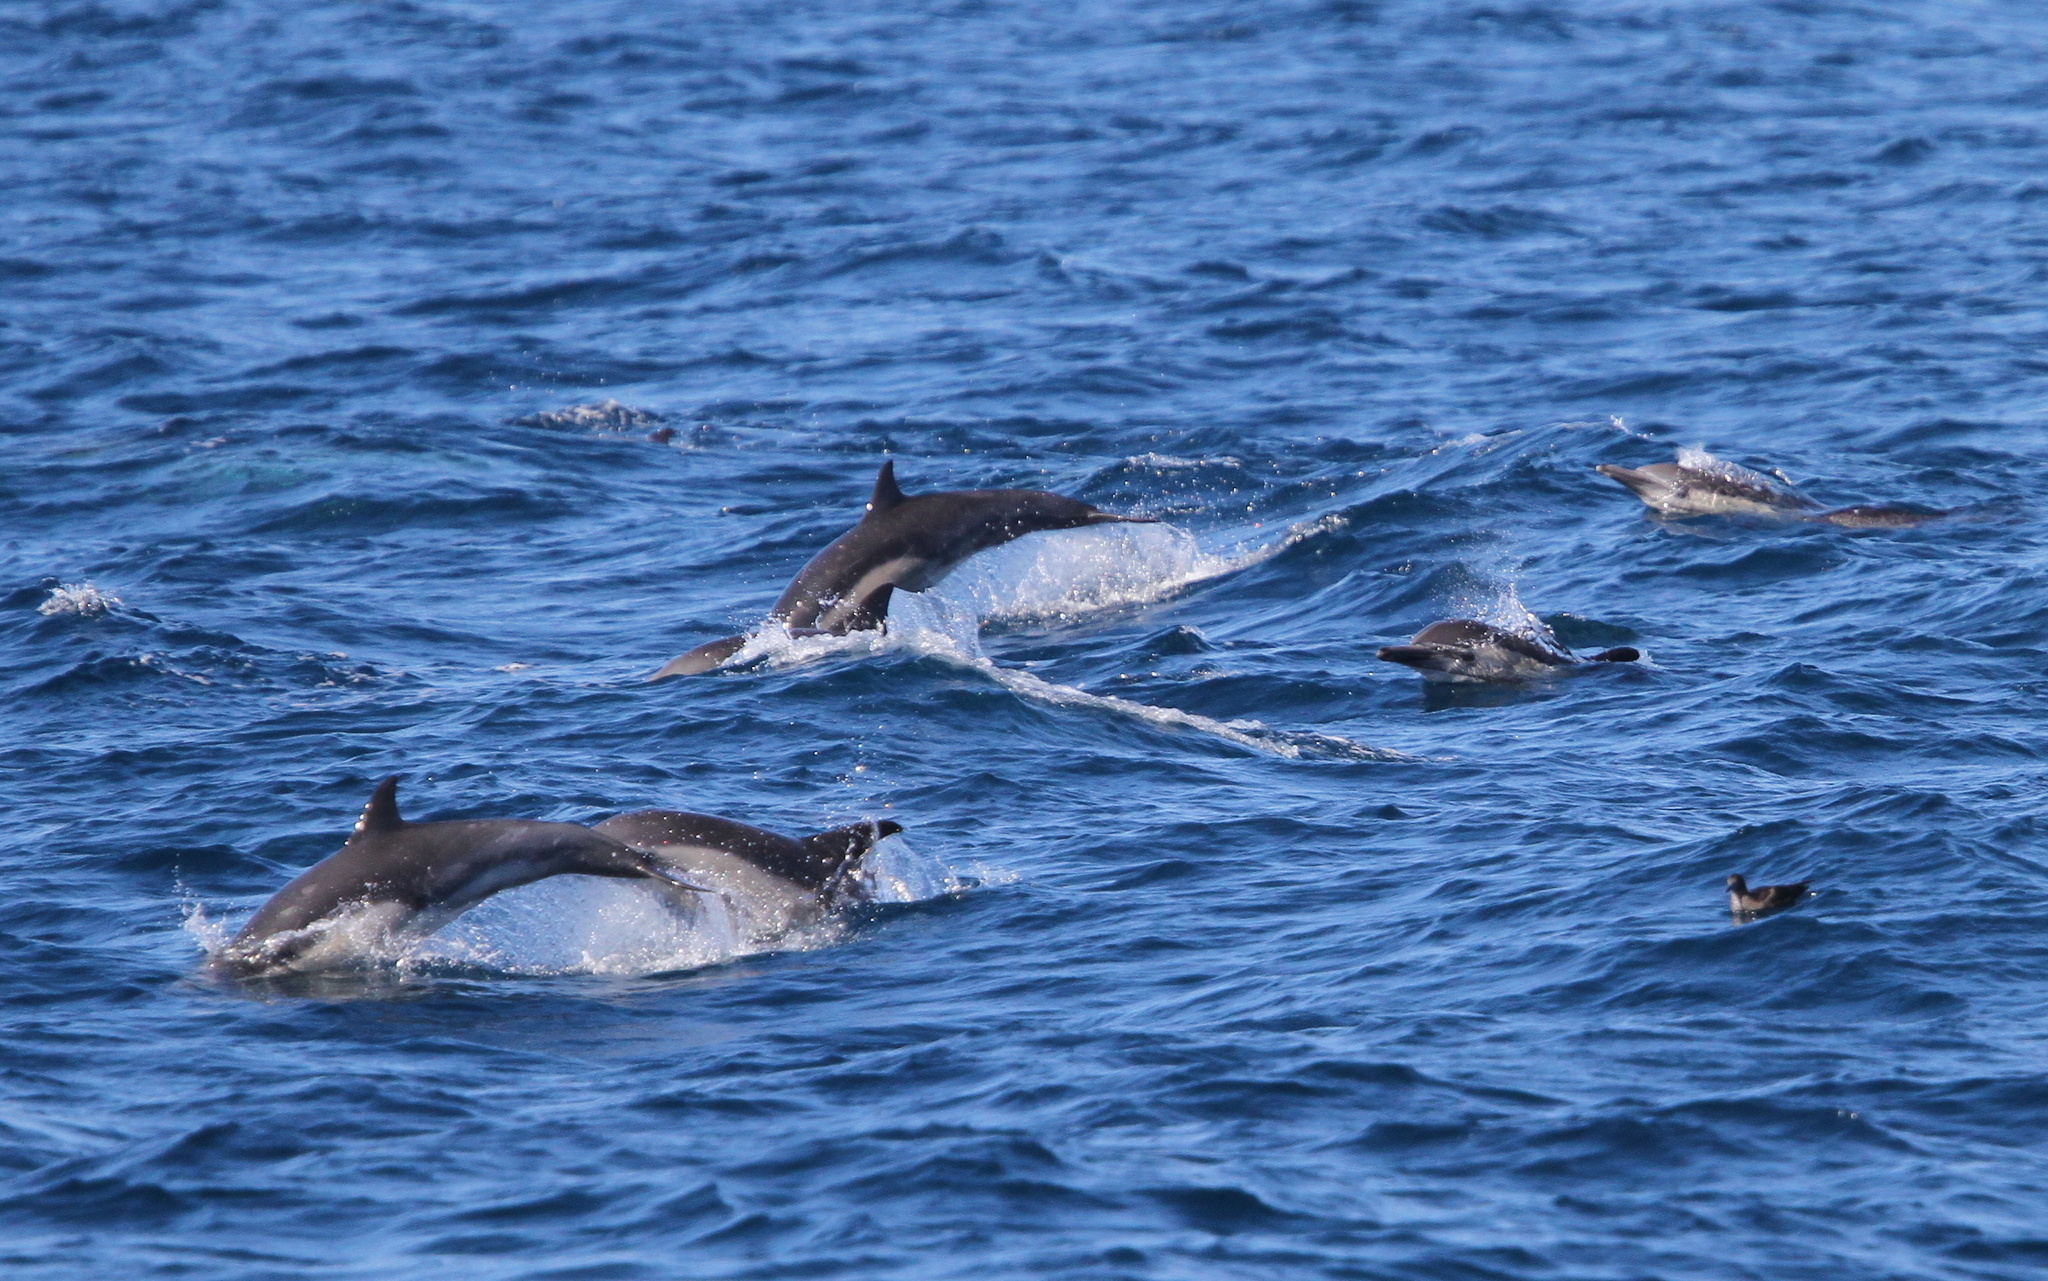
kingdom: Animalia
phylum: Chordata
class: Mammalia
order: Cetacea
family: Delphinidae
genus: Delphinus
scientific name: Delphinus delphis
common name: Common dolphin
